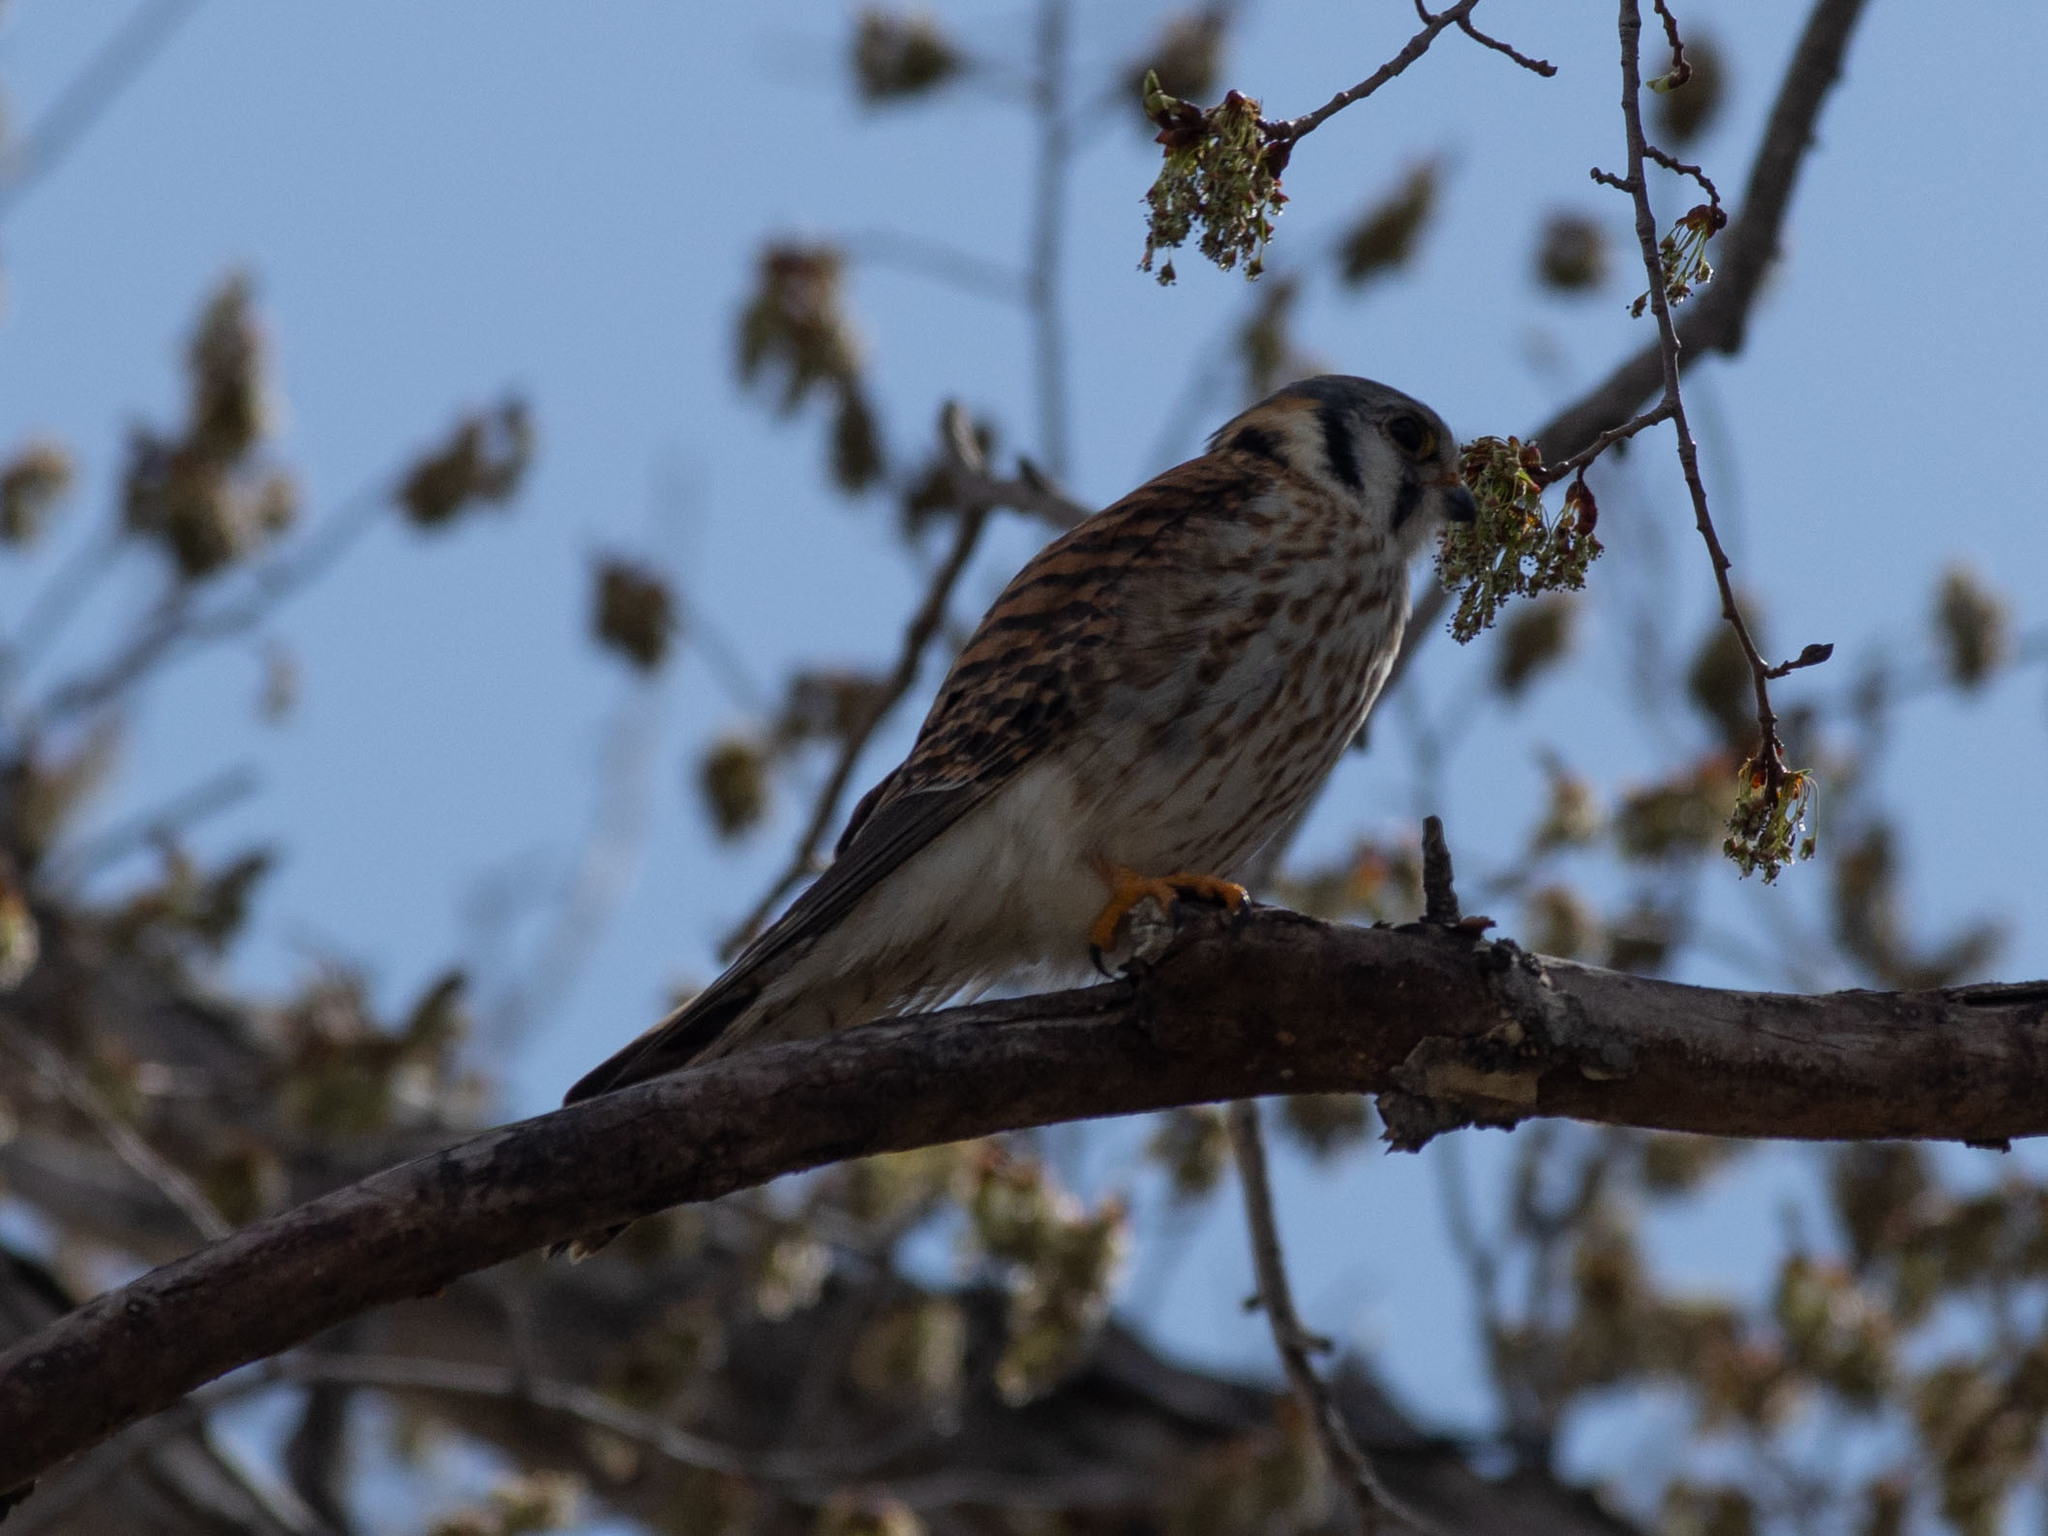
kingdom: Animalia
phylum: Chordata
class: Aves
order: Falconiformes
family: Falconidae
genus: Falco
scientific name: Falco sparverius
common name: American kestrel
